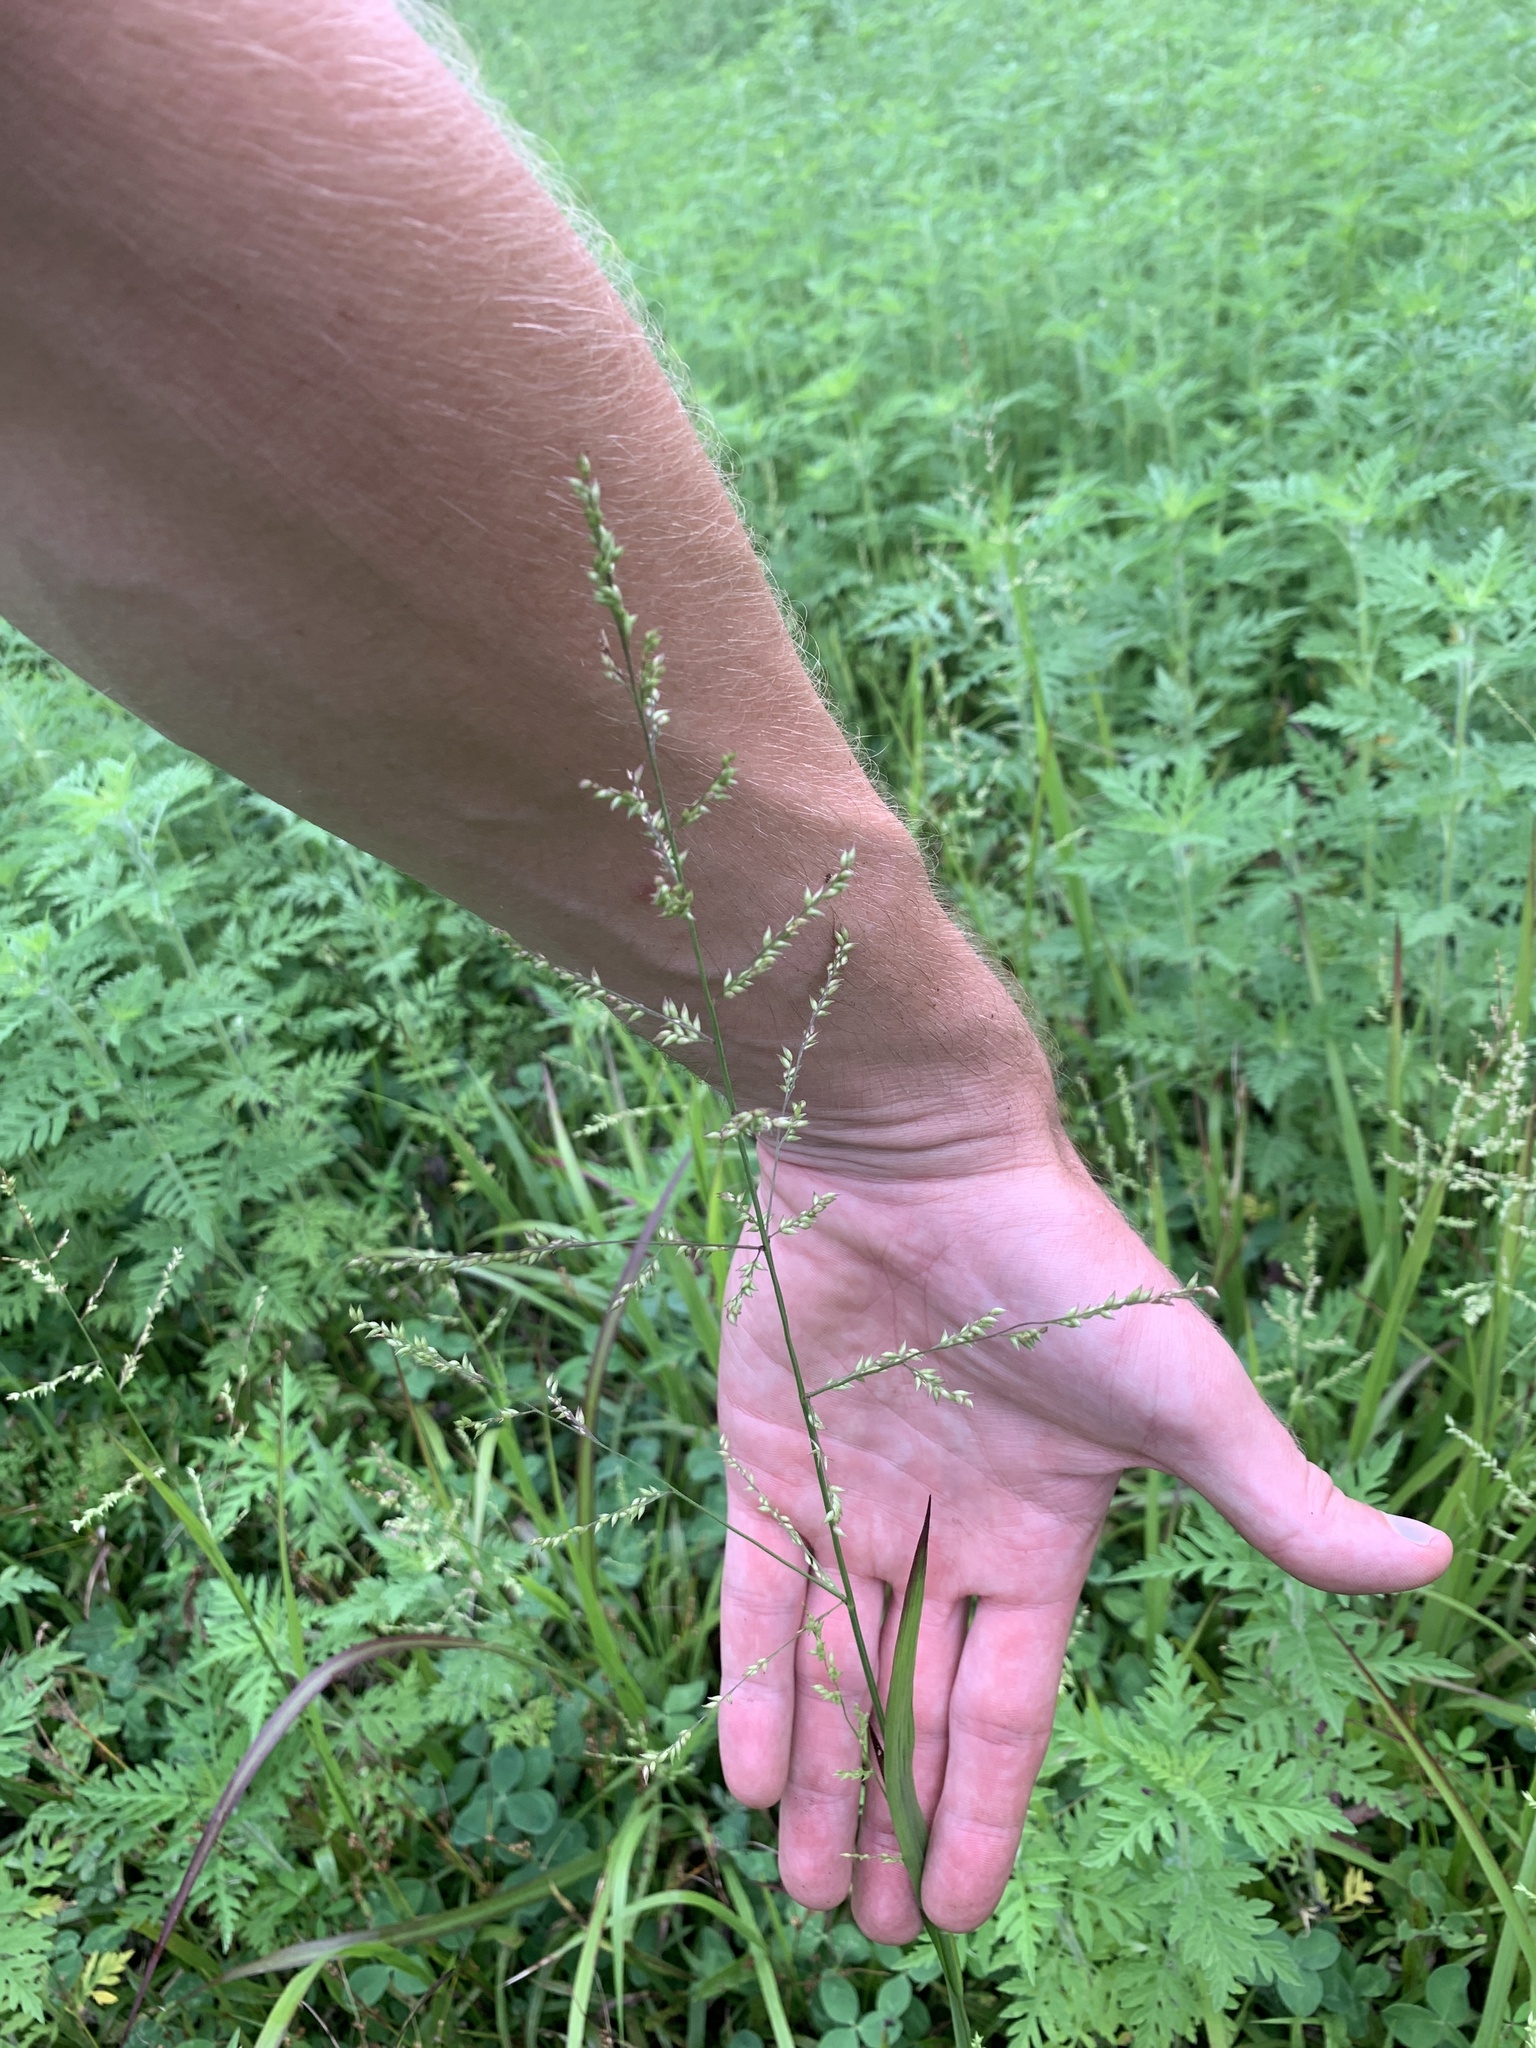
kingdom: Plantae
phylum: Tracheophyta
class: Liliopsida
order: Poales
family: Poaceae
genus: Coleataenia
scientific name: Coleataenia anceps
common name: Beaked panic grass
